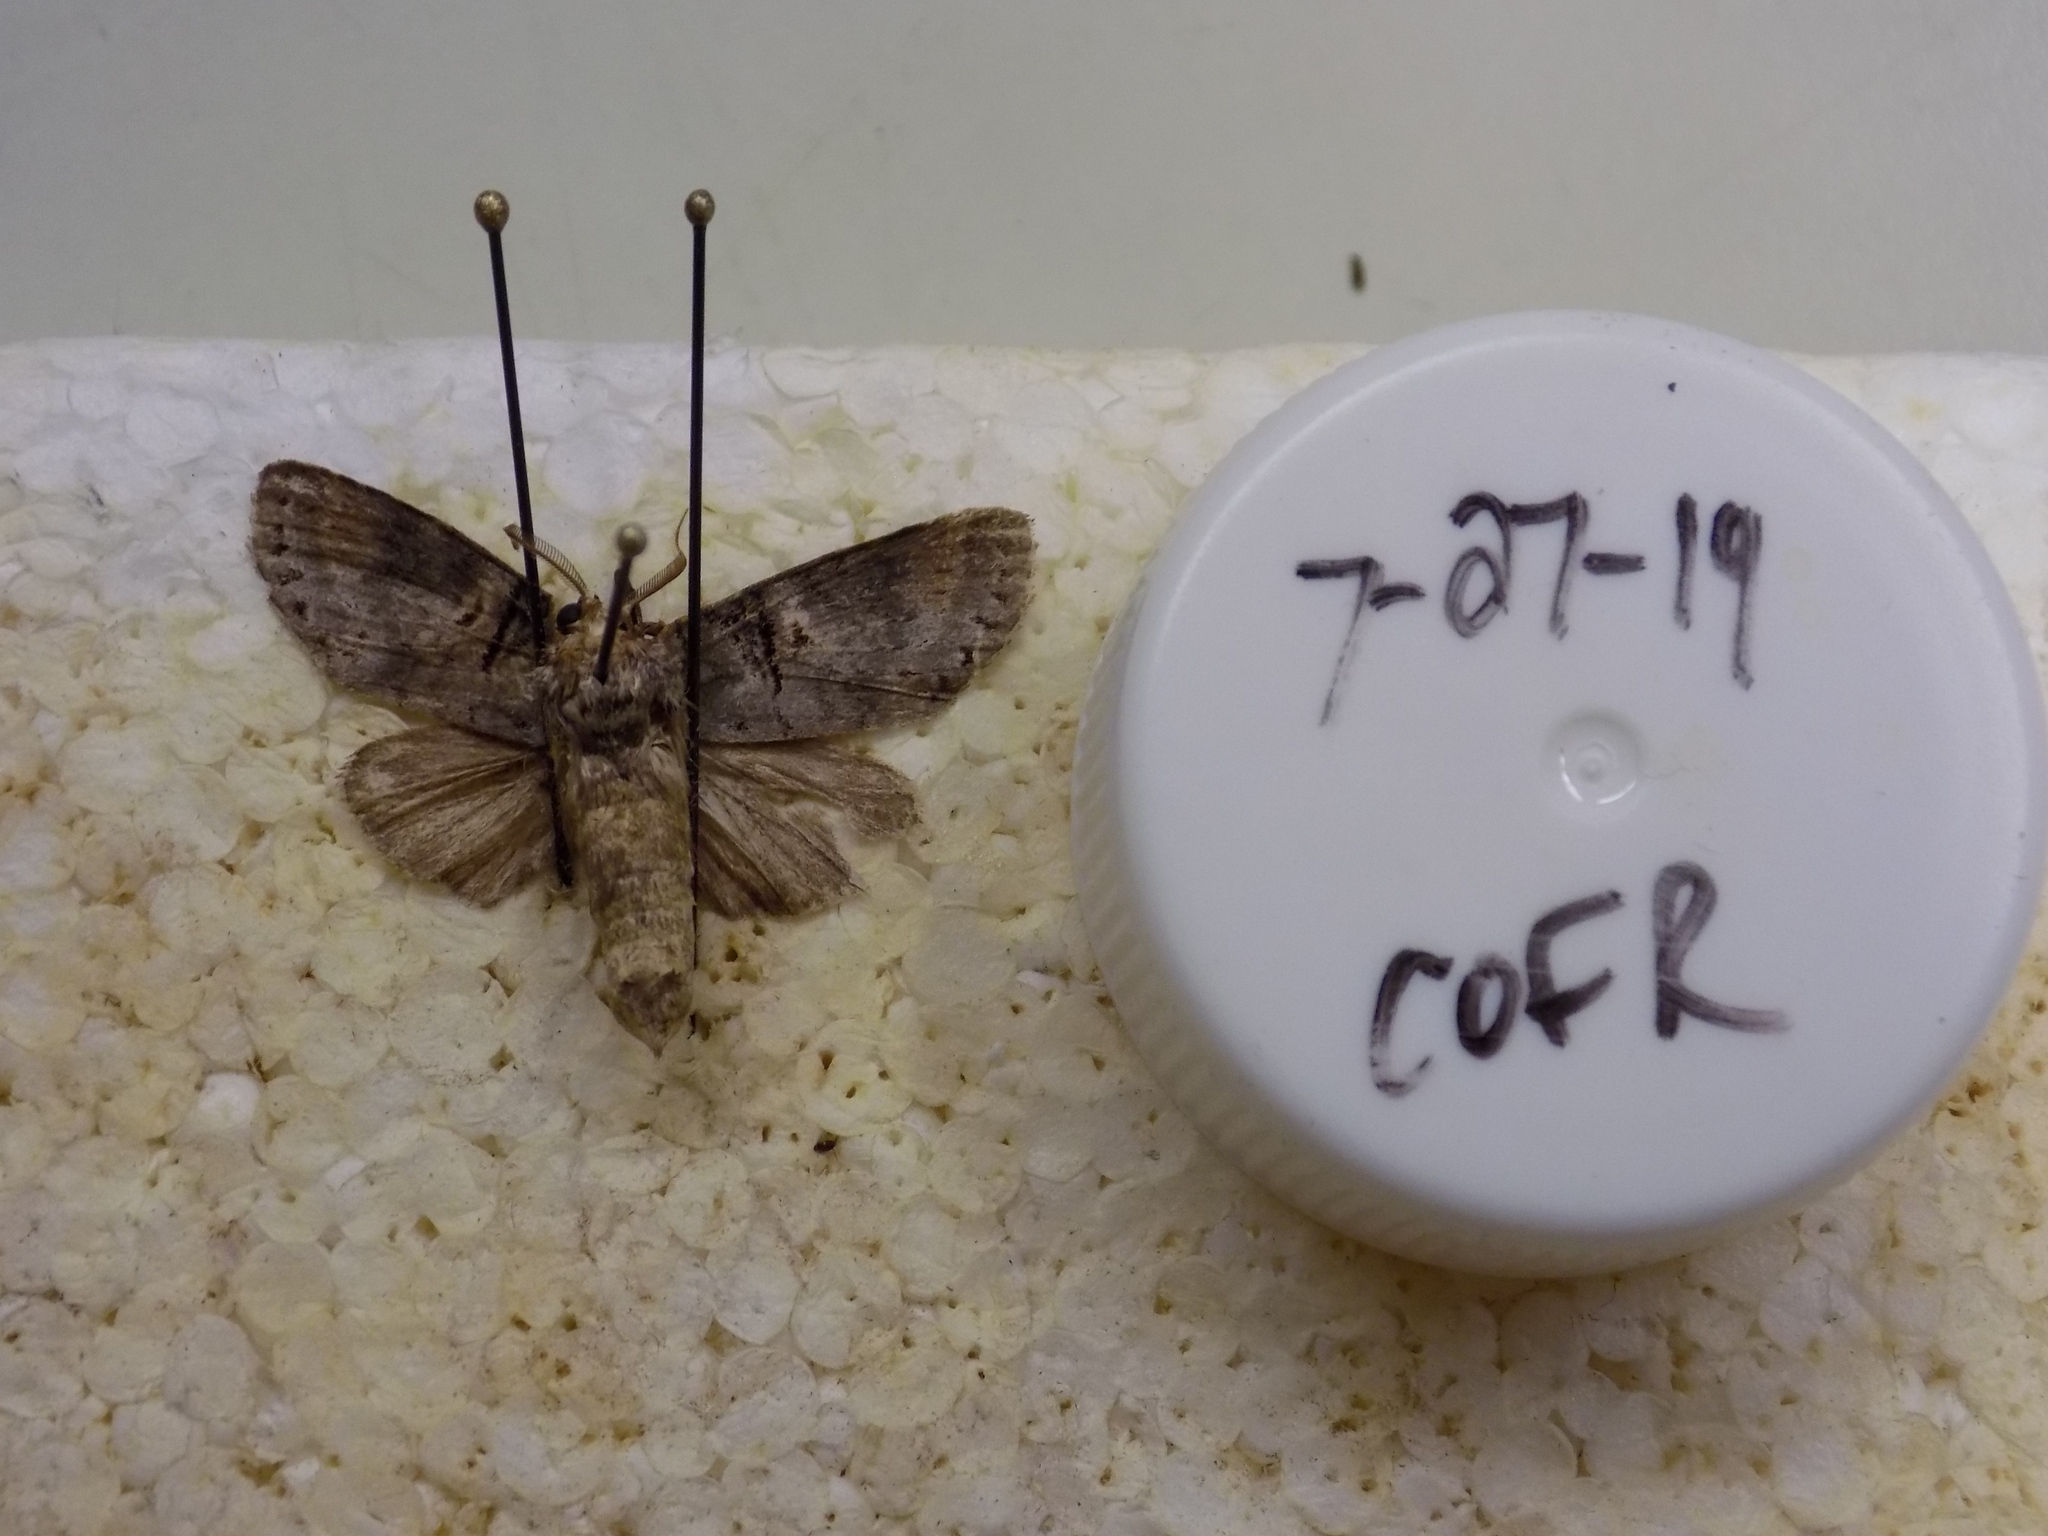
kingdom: Animalia
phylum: Arthropoda
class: Insecta
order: Lepidoptera
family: Notodontidae
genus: Ellida
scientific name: Ellida caniplaga
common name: Linden prominent
